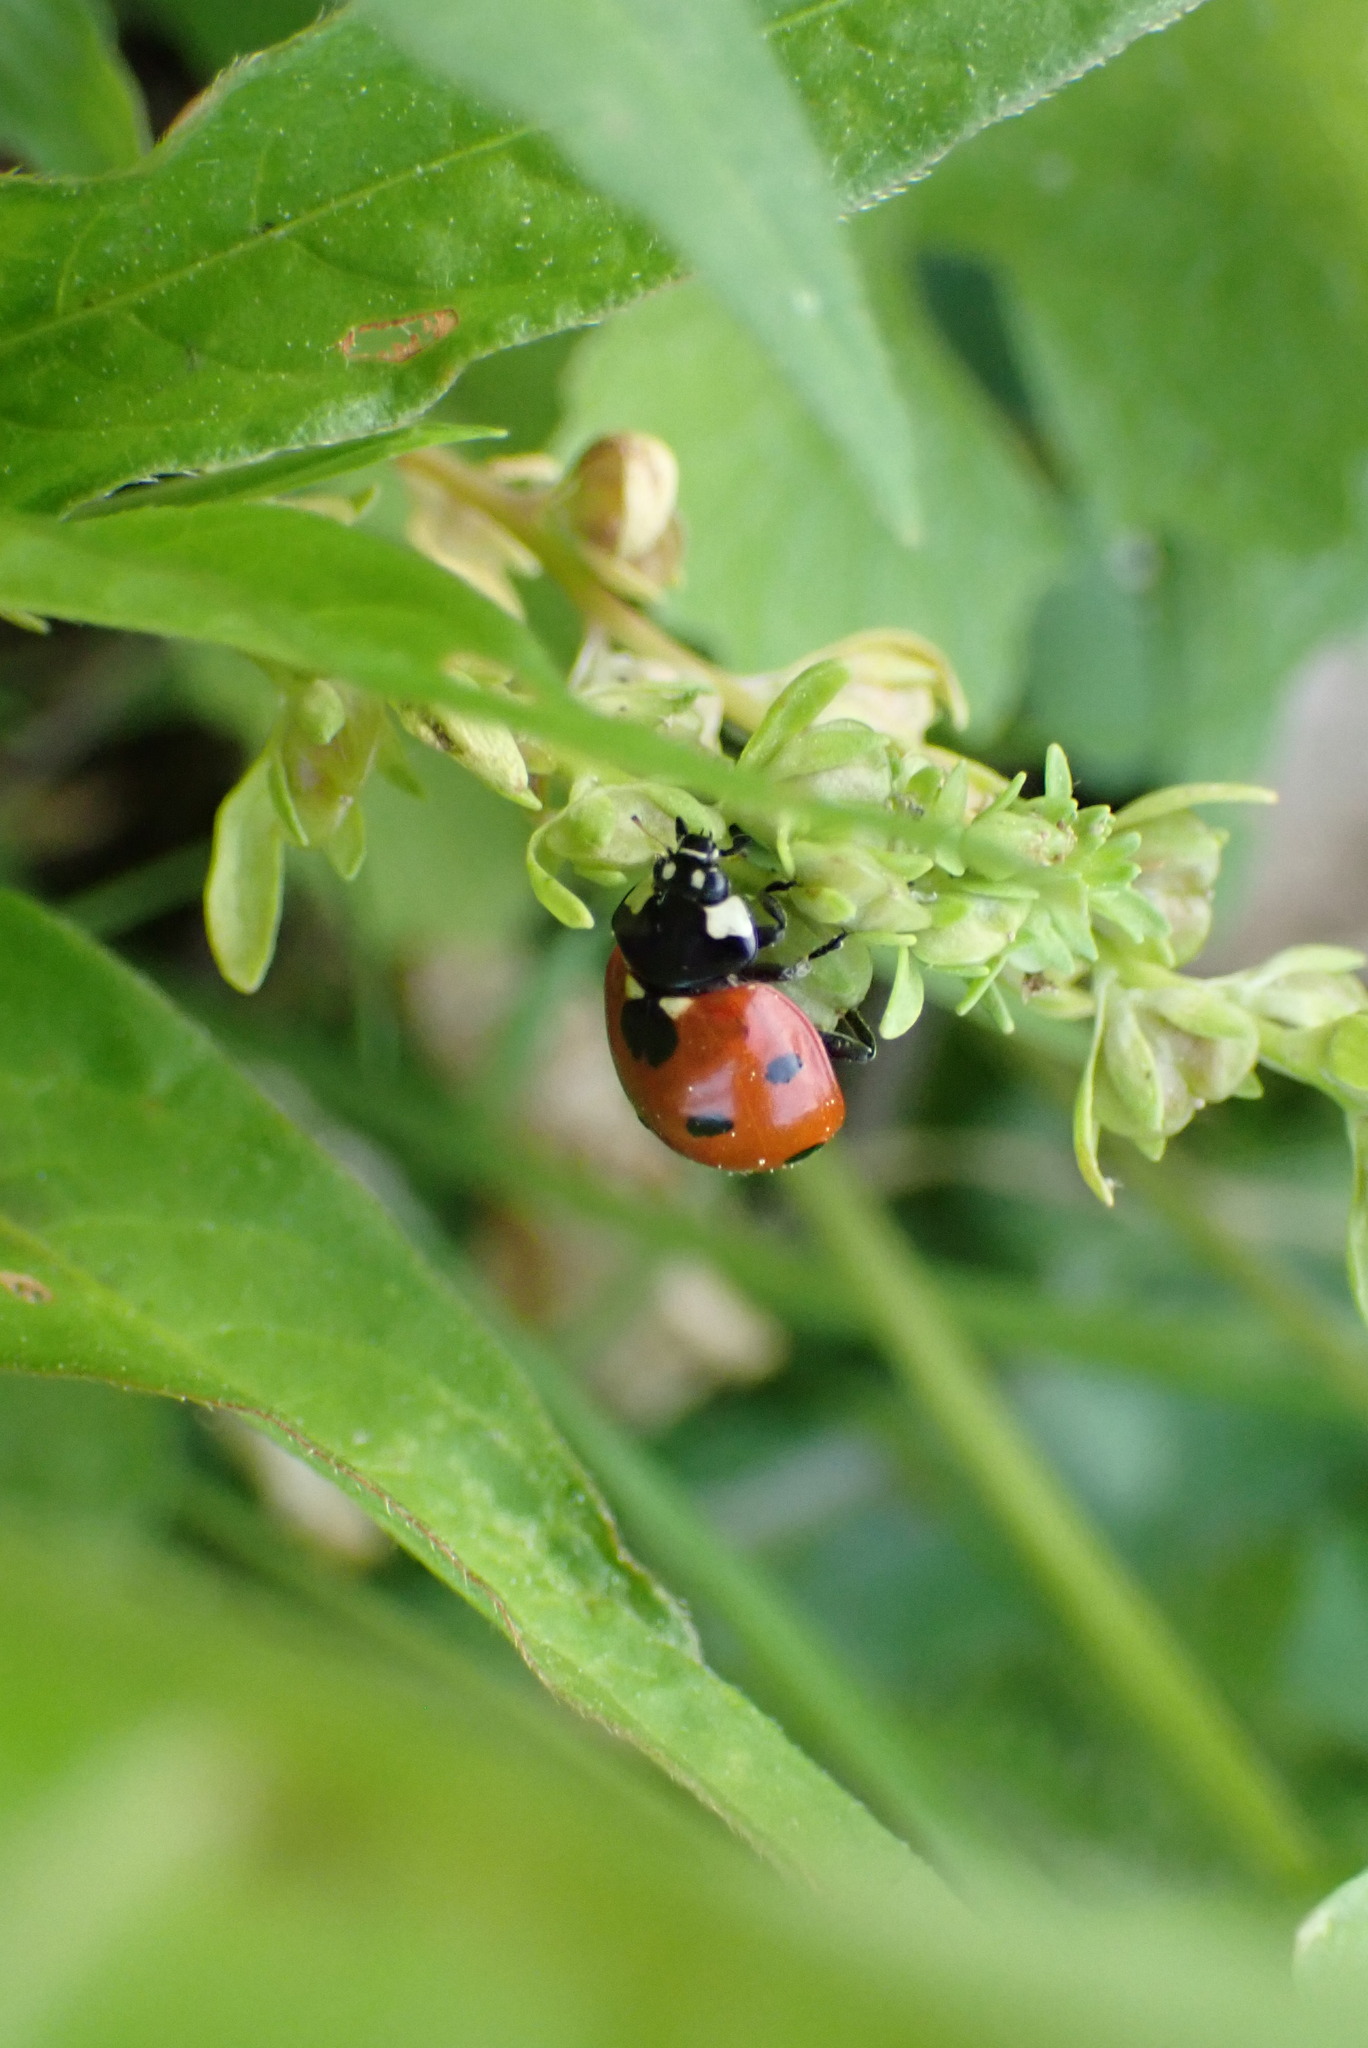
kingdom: Animalia
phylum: Arthropoda
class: Insecta
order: Coleoptera
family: Coccinellidae
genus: Coccinella
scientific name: Coccinella septempunctata
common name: Sevenspotted lady beetle
